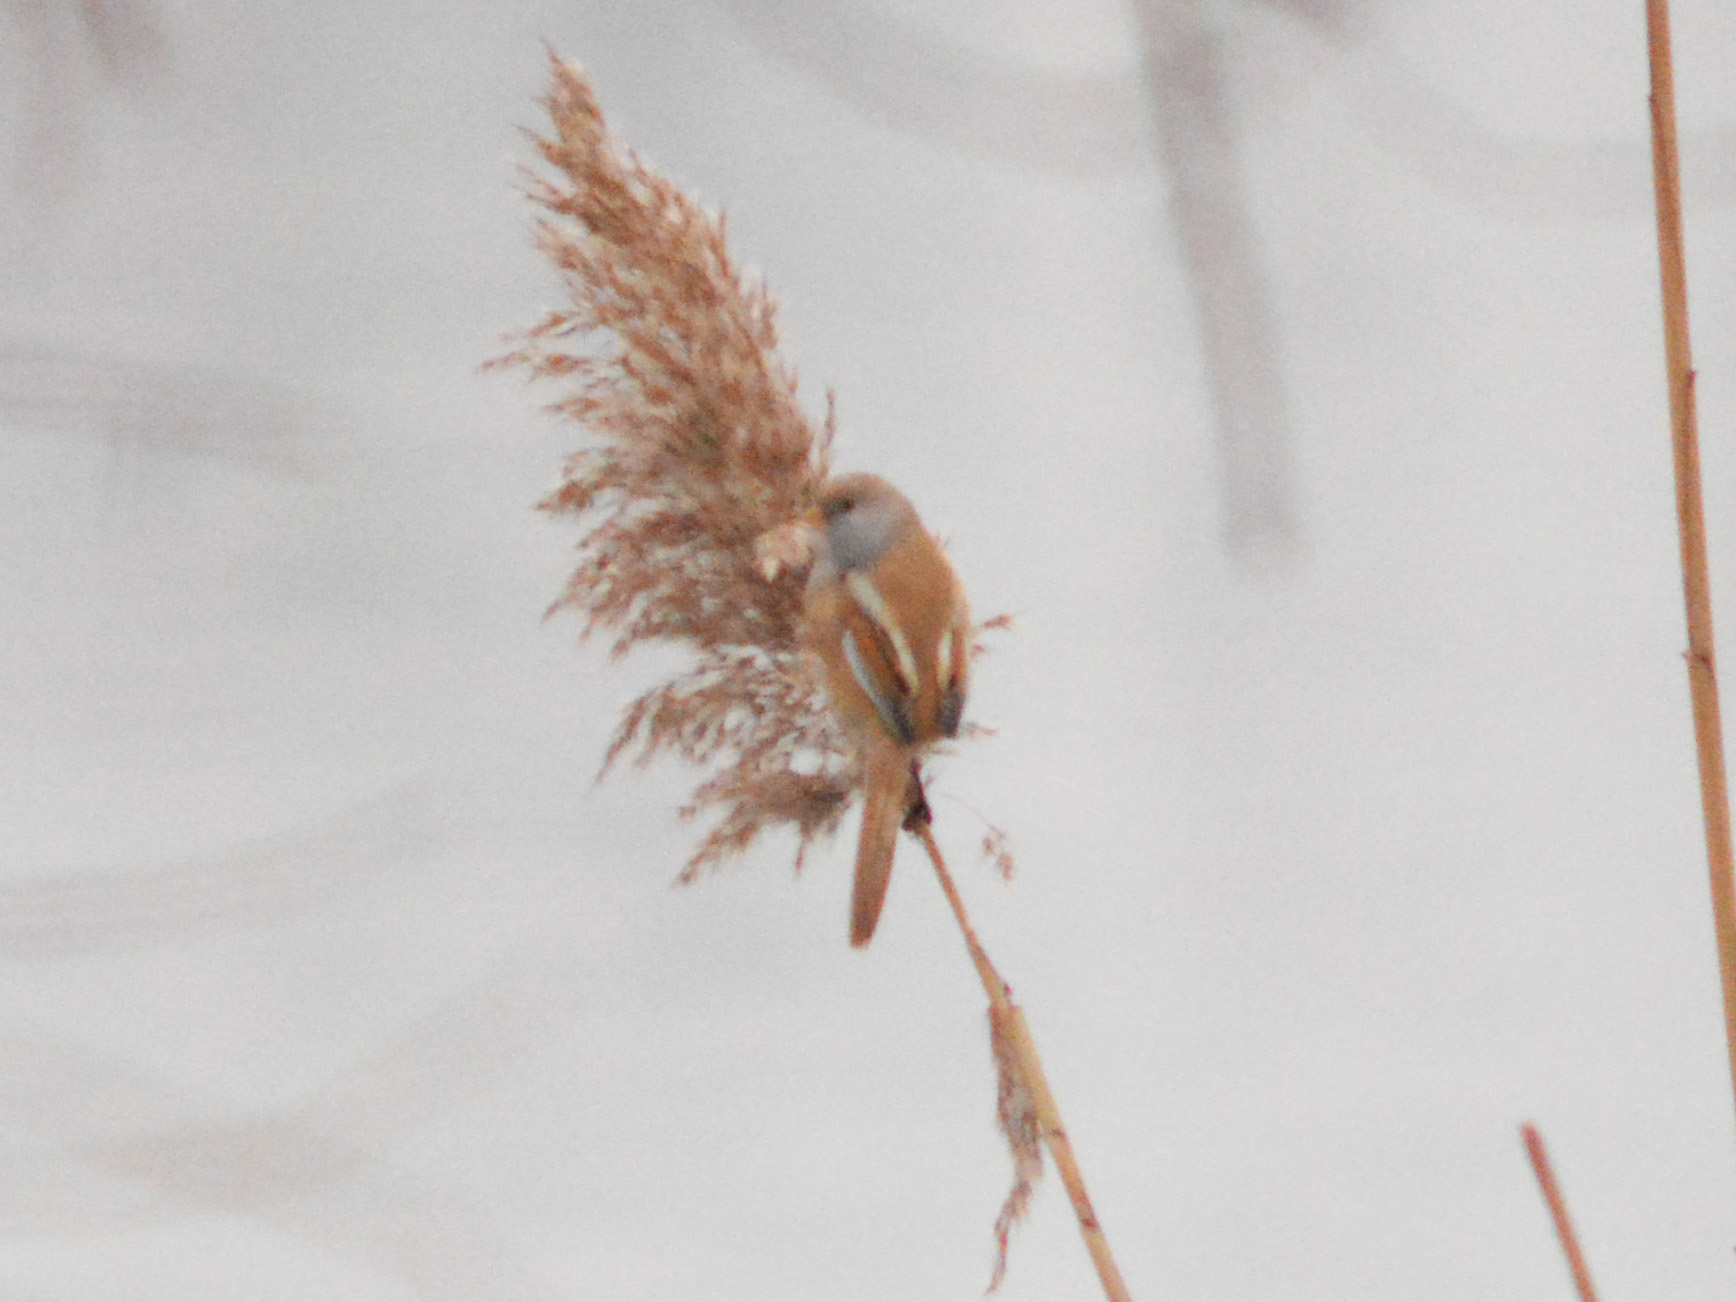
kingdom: Animalia
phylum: Chordata
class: Aves
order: Passeriformes
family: Panuridae
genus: Panurus
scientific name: Panurus biarmicus
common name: Bearded reedling
